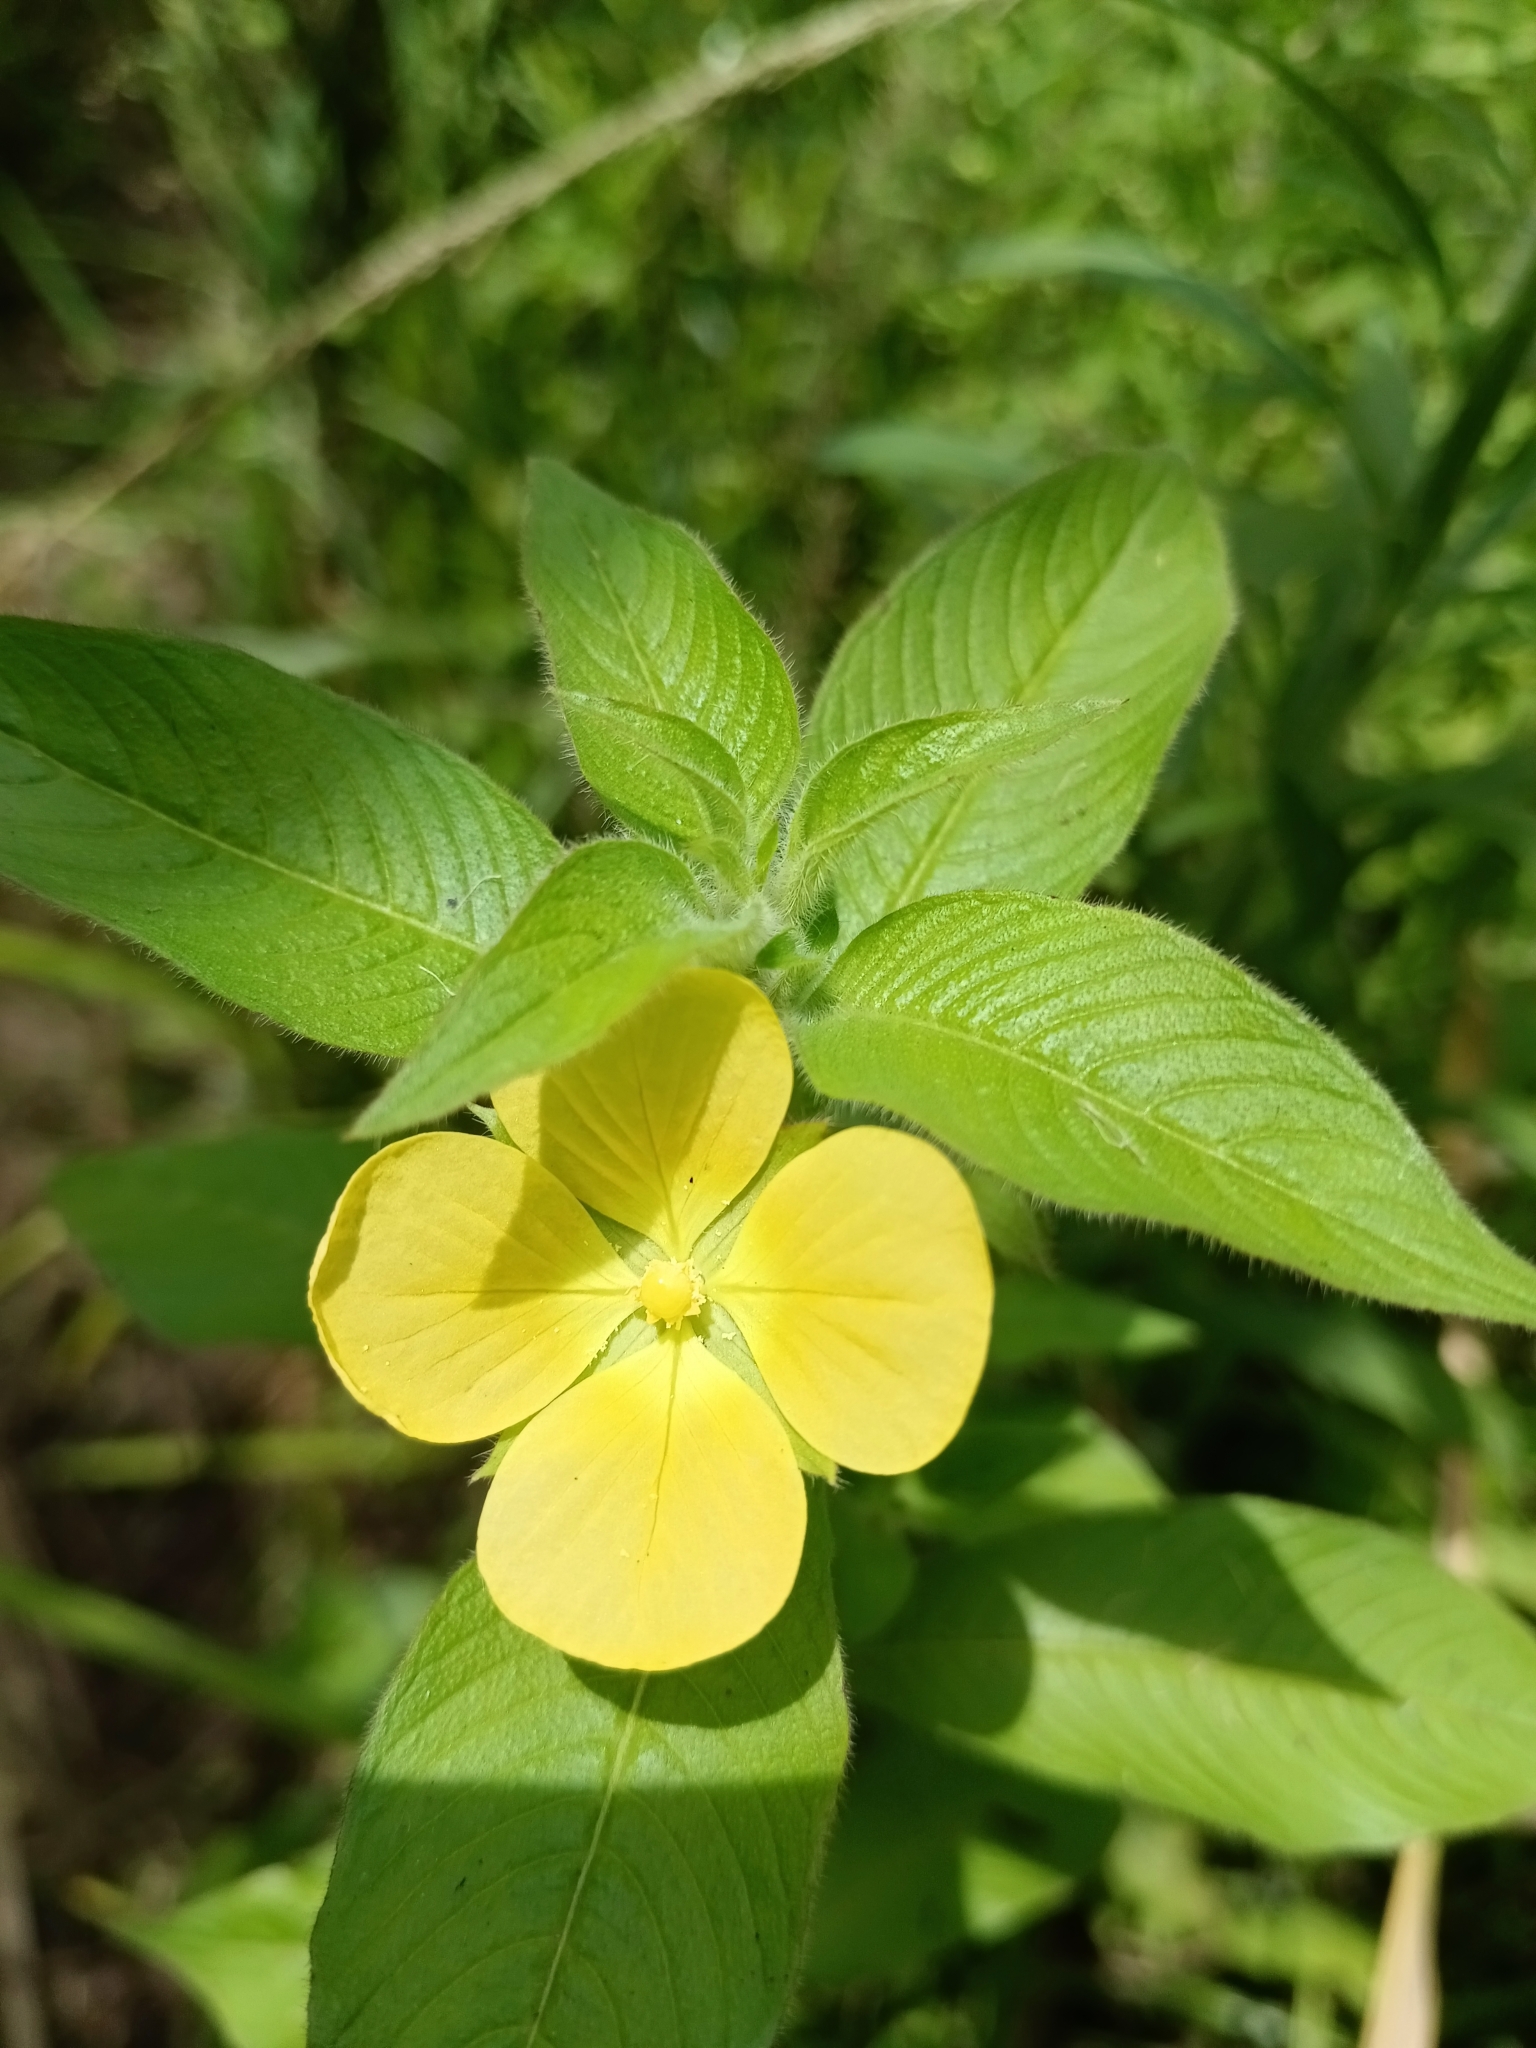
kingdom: Plantae
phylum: Tracheophyta
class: Magnoliopsida
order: Myrtales
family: Onagraceae
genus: Ludwigia
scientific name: Ludwigia octovalvis
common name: Water-primrose
